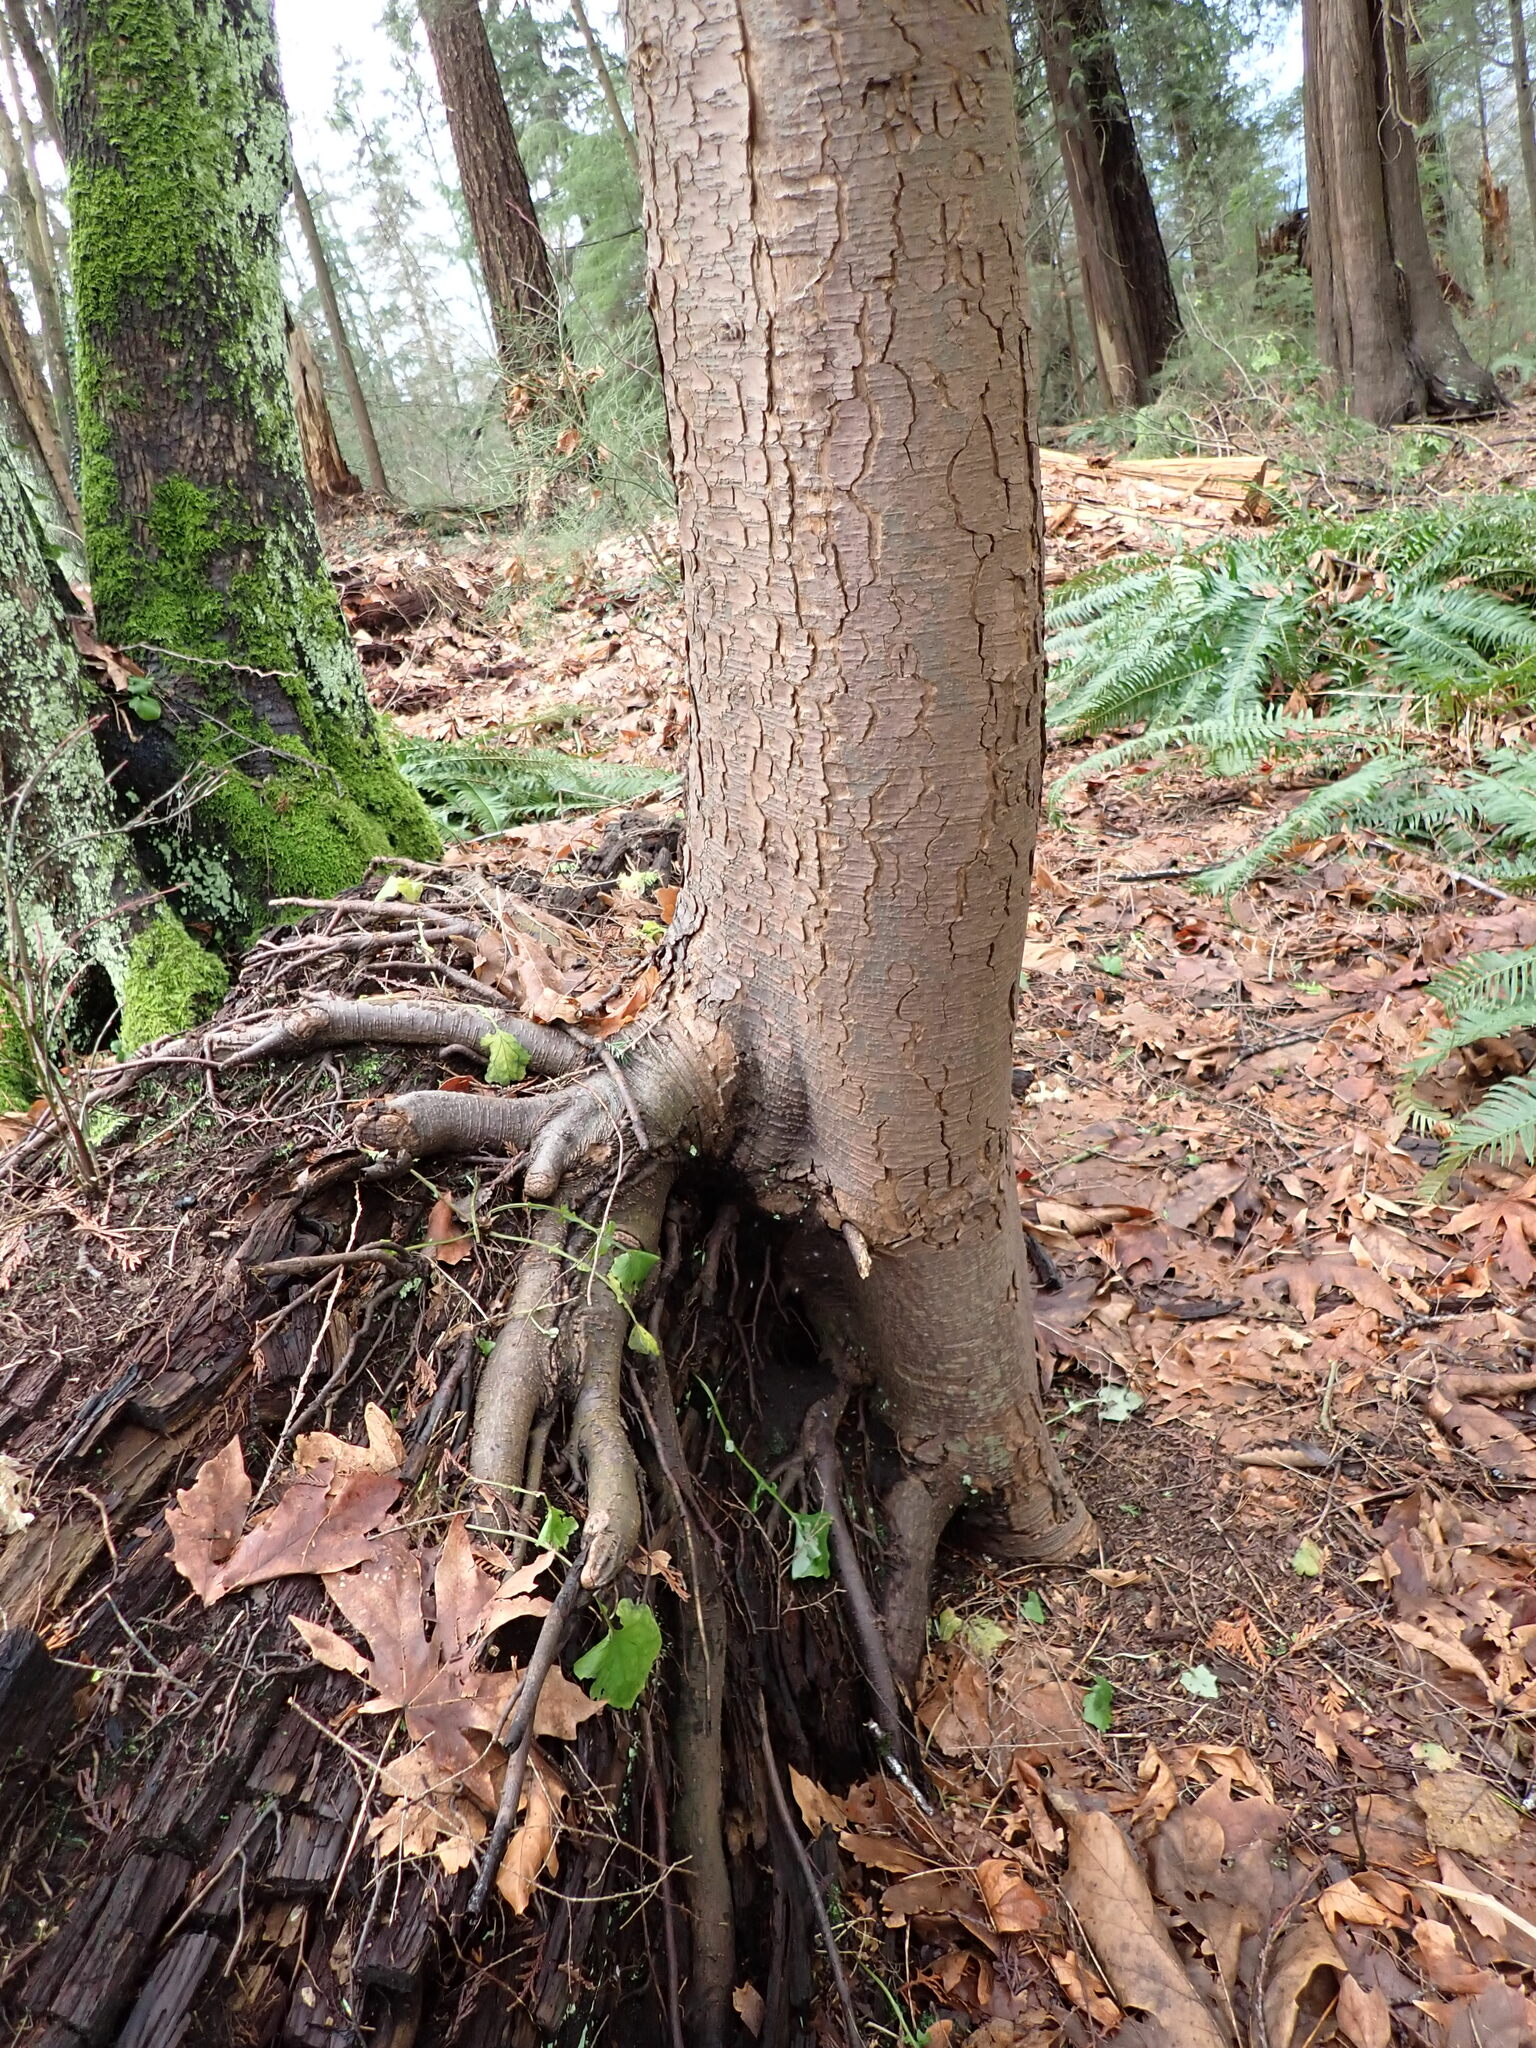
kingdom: Plantae
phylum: Tracheophyta
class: Pinopsida
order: Pinales
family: Pinaceae
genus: Tsuga
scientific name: Tsuga heterophylla
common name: Western hemlock
